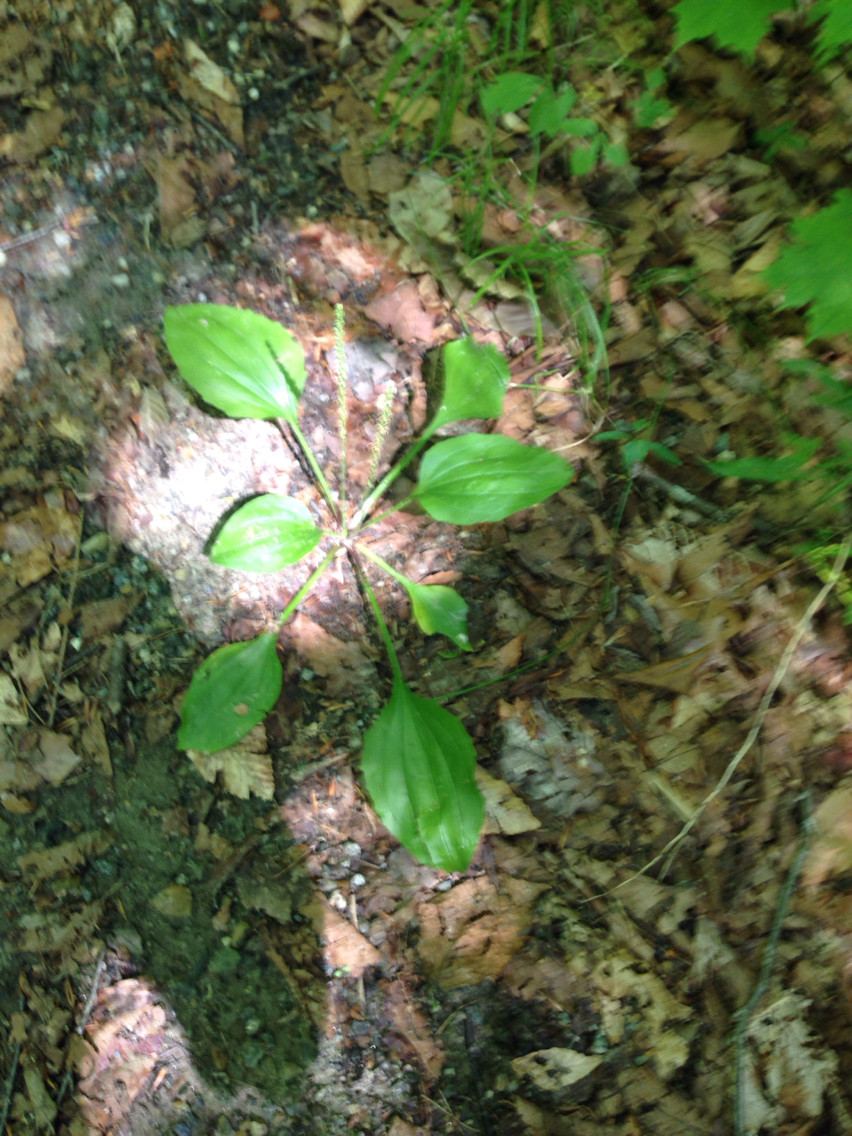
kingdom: Plantae
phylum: Tracheophyta
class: Magnoliopsida
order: Lamiales
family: Plantaginaceae
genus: Plantago
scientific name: Plantago major
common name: Common plantain
